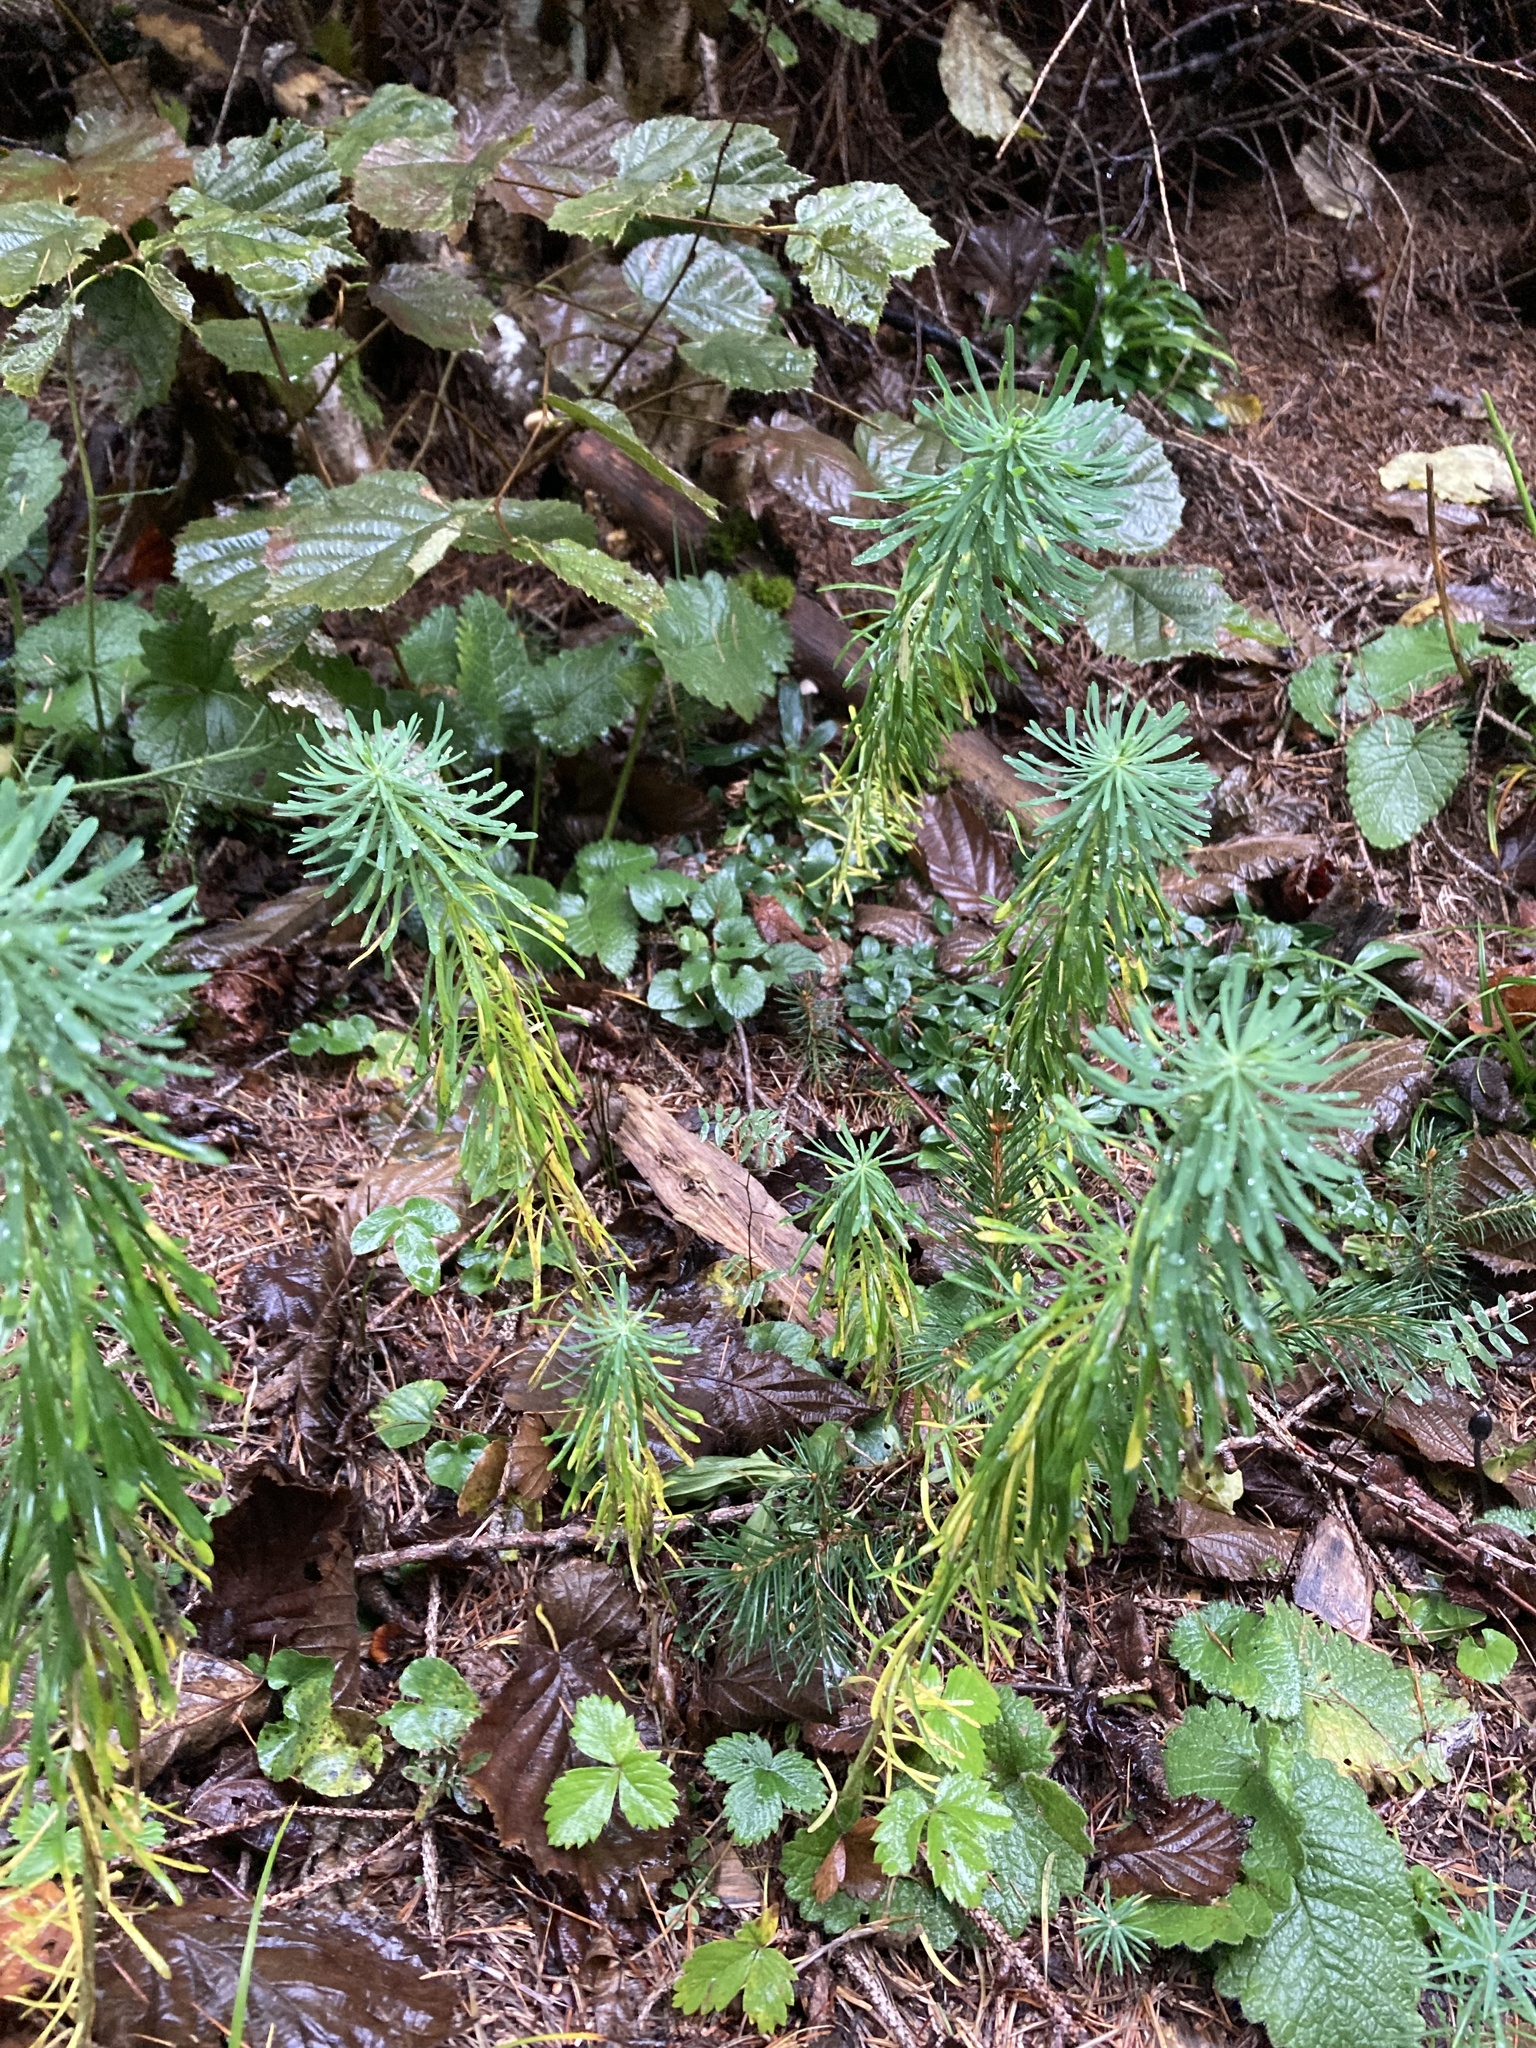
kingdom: Plantae
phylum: Tracheophyta
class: Magnoliopsida
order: Malpighiales
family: Euphorbiaceae
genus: Euphorbia
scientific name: Euphorbia cyparissias
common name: Cypress spurge
